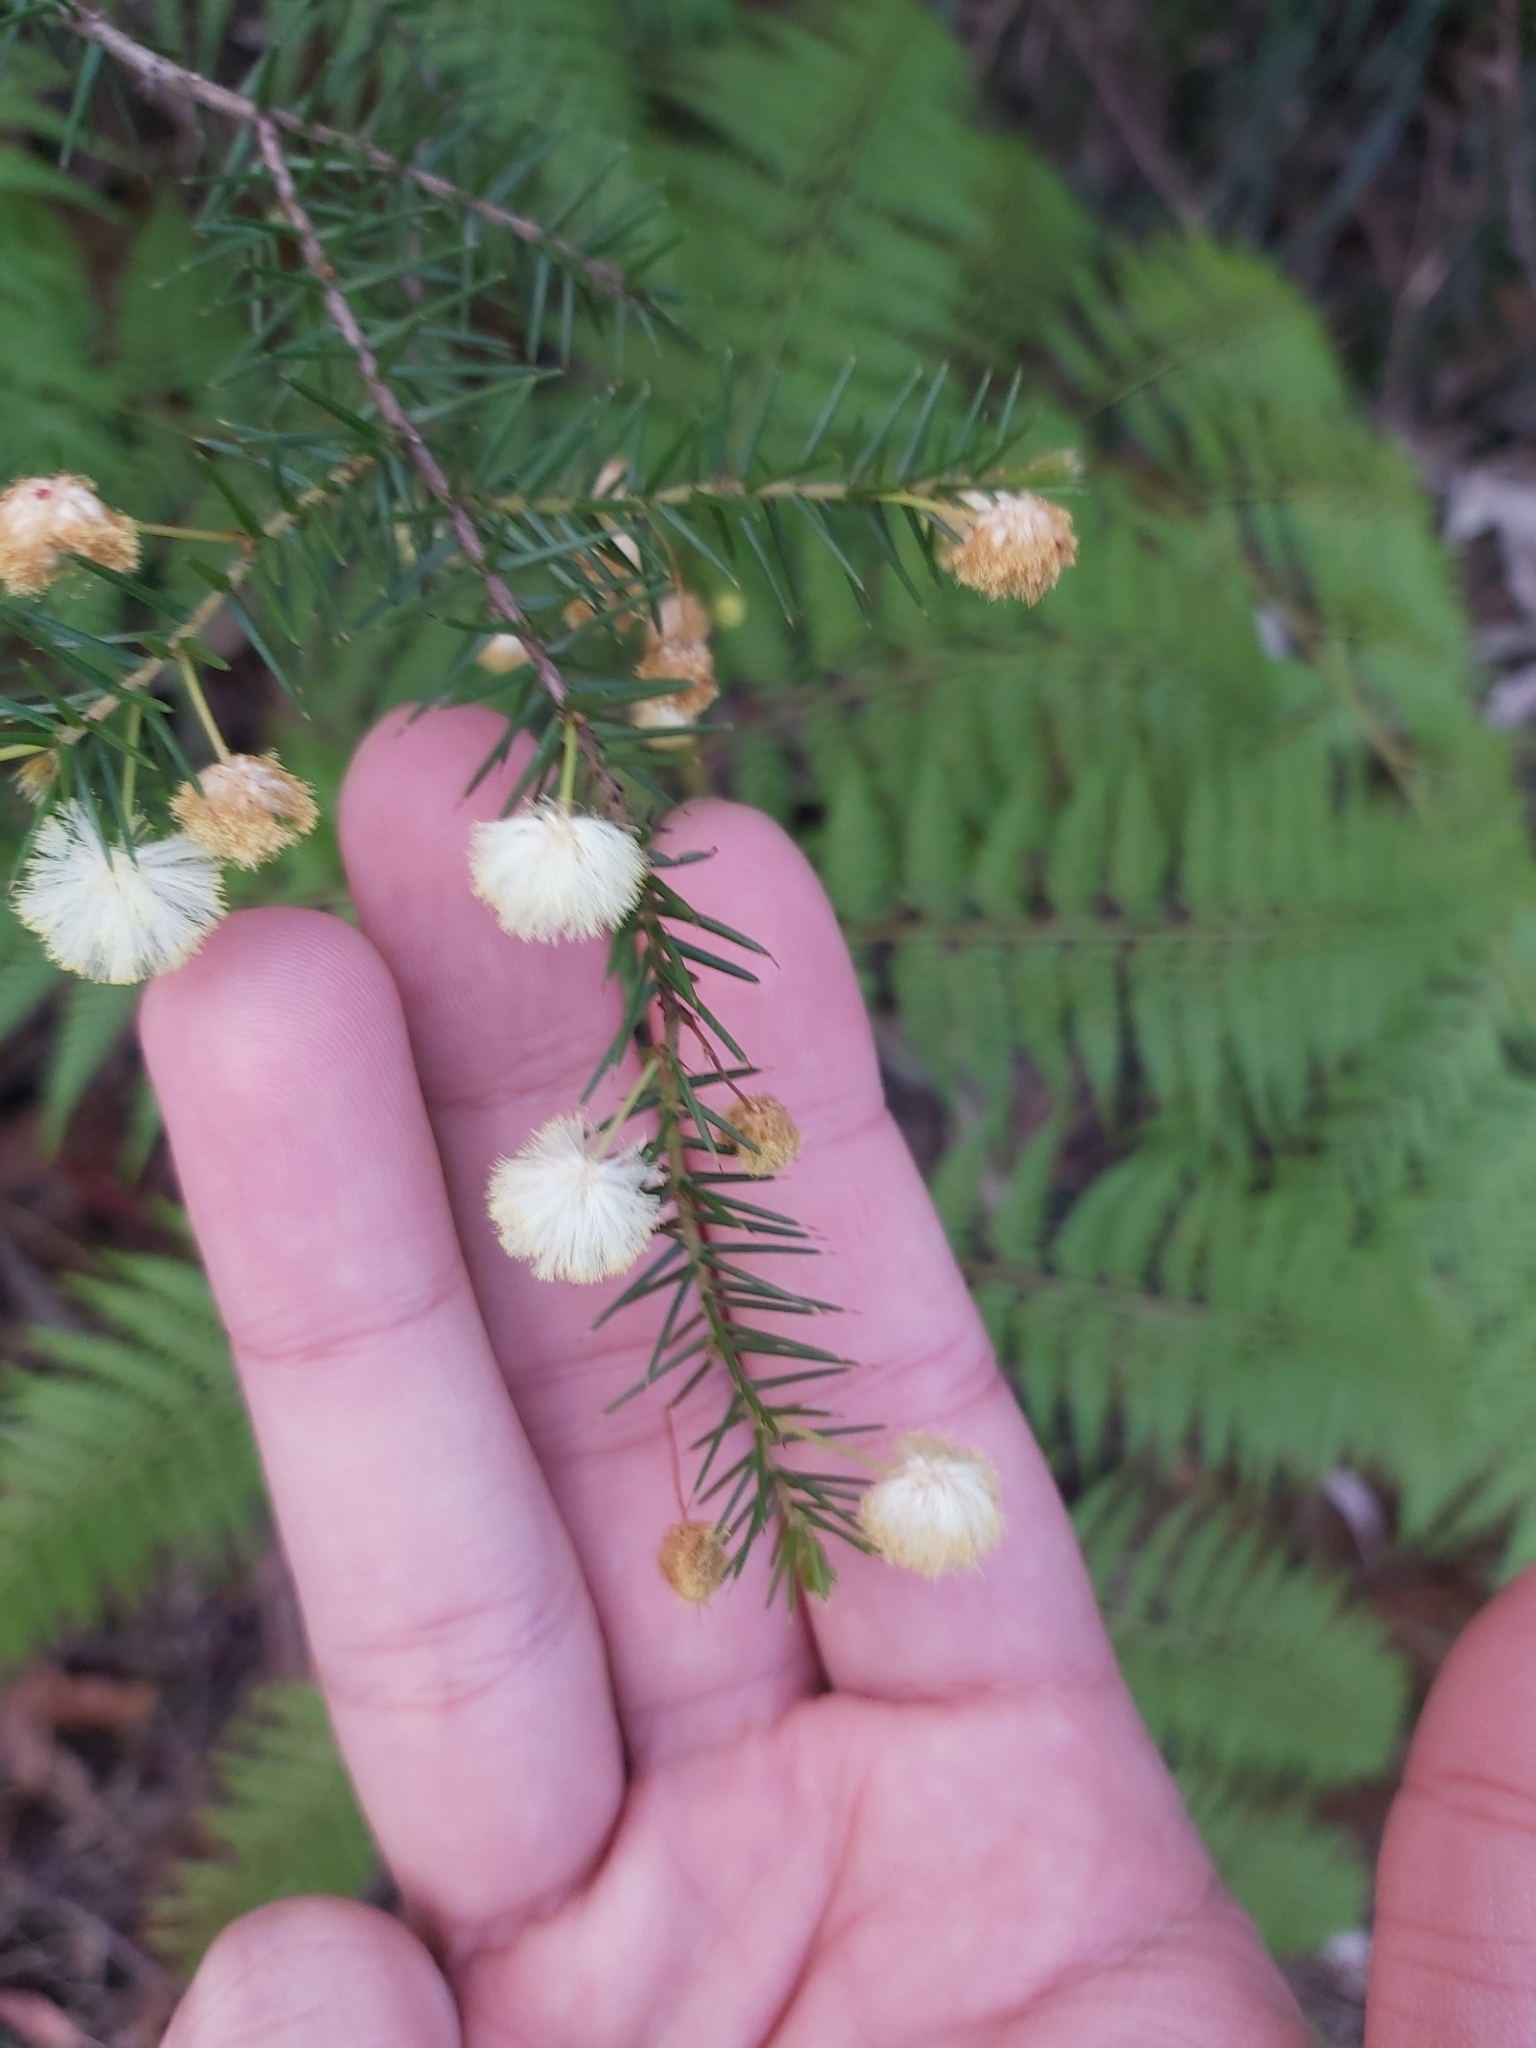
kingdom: Plantae
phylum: Tracheophyta
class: Magnoliopsida
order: Fabales
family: Fabaceae
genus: Acacia
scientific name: Acacia ulicifolia
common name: Juniper wattle
